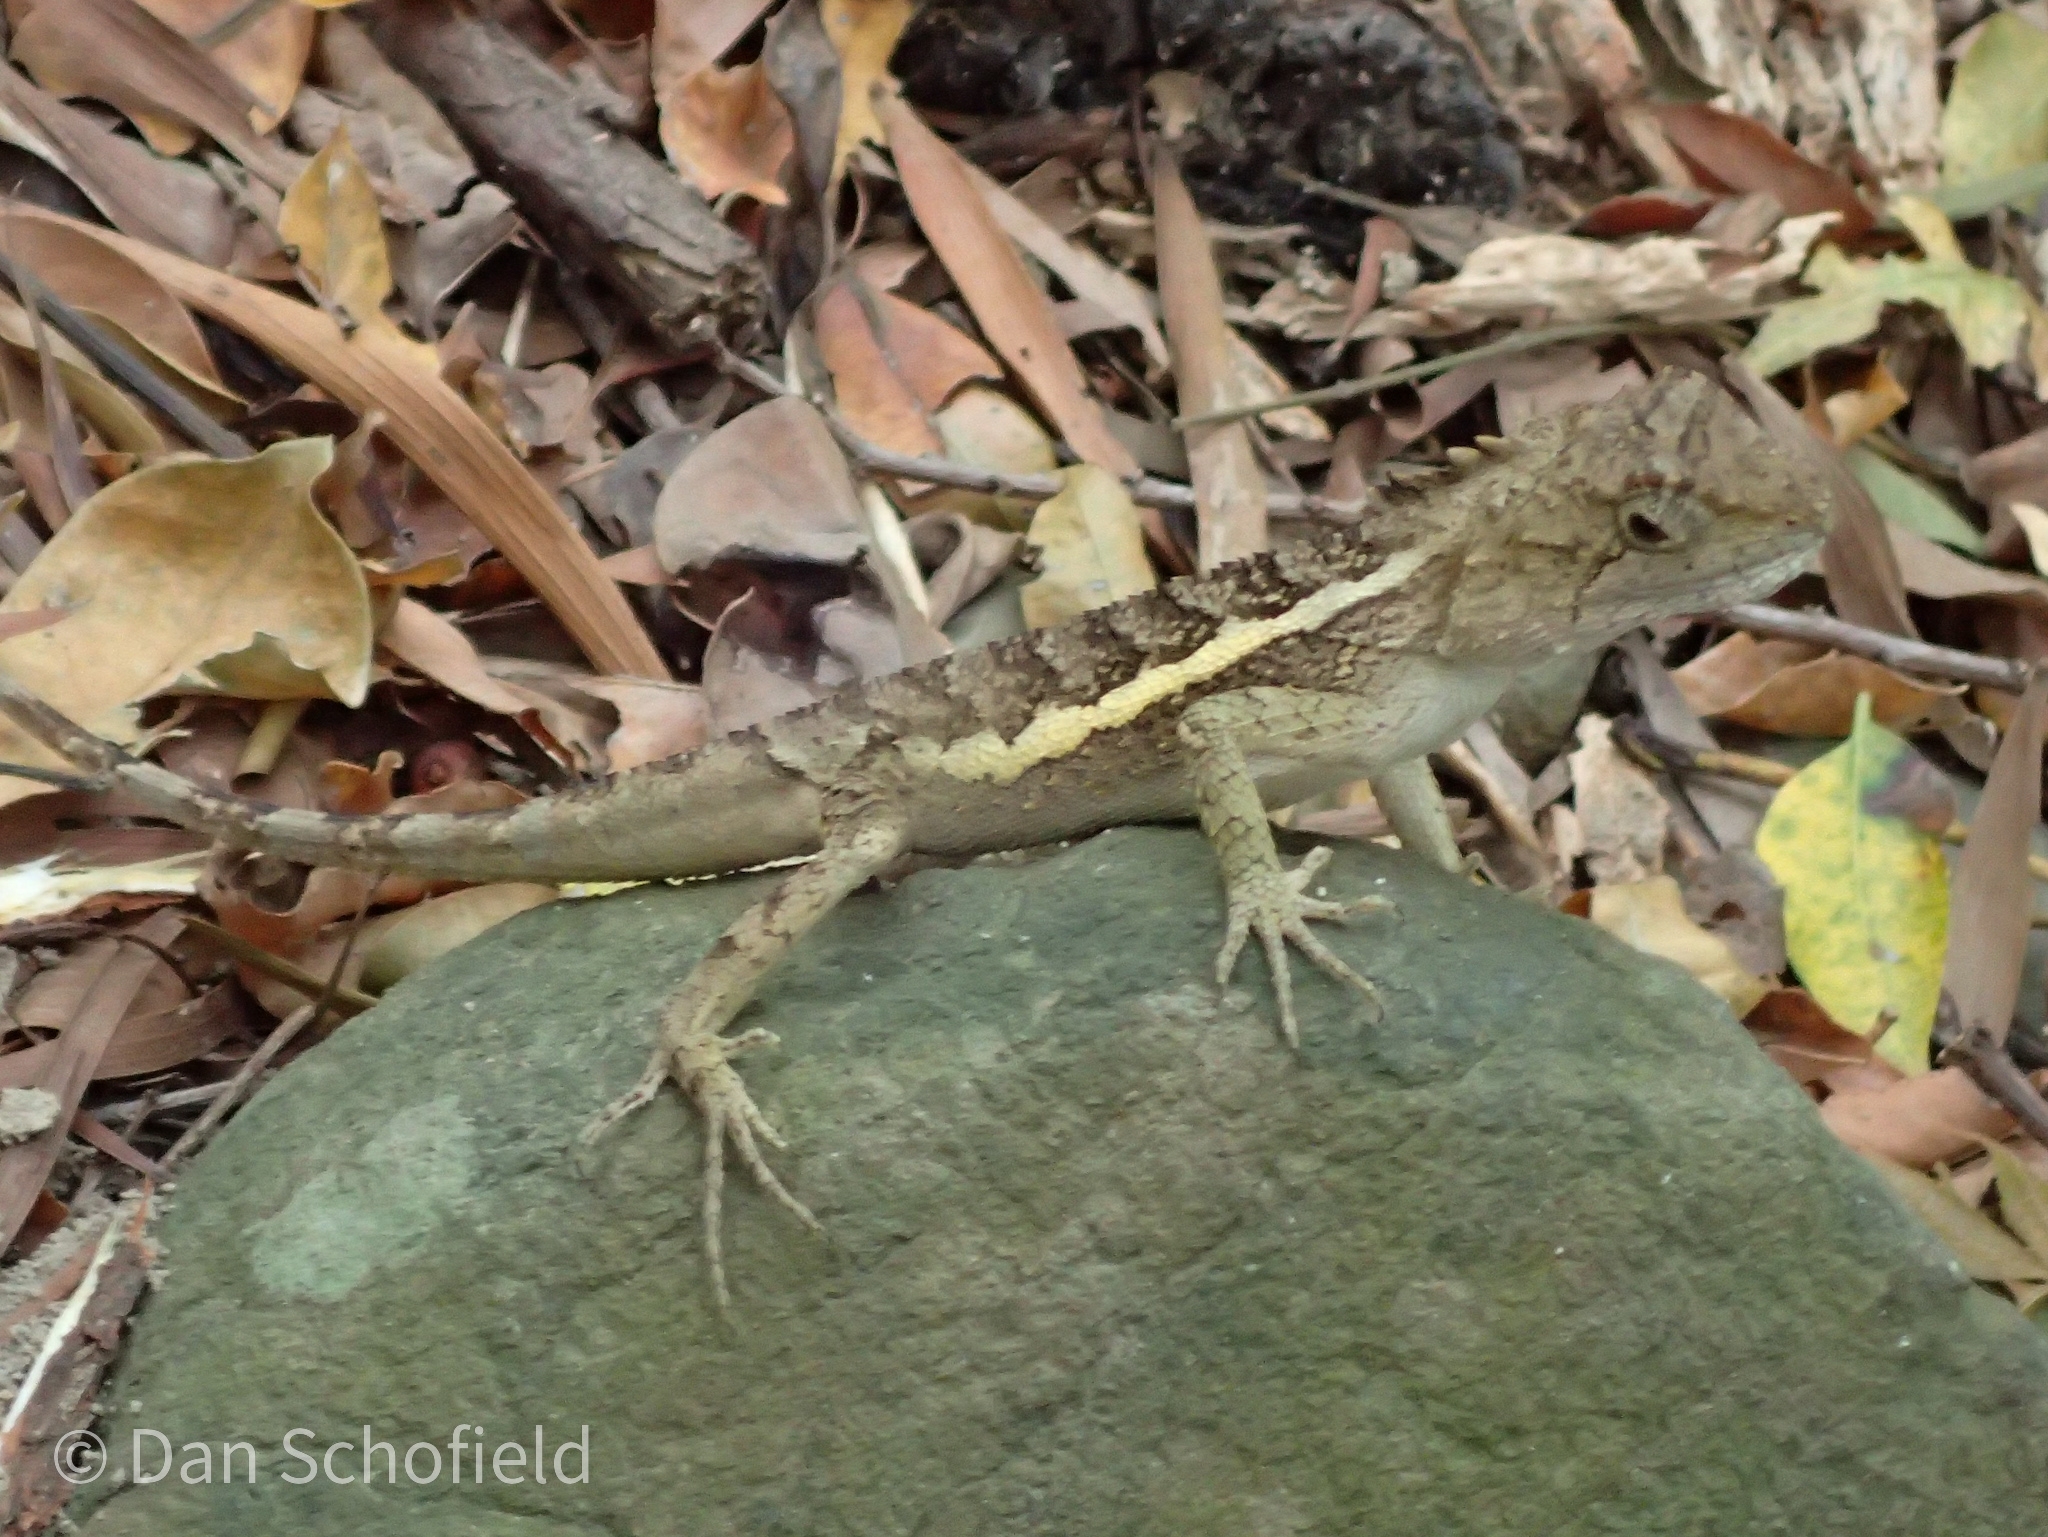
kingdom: Animalia
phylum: Chordata
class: Squamata
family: Agamidae
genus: Diploderma
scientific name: Diploderma swinhonis
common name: Taiwan japalure
